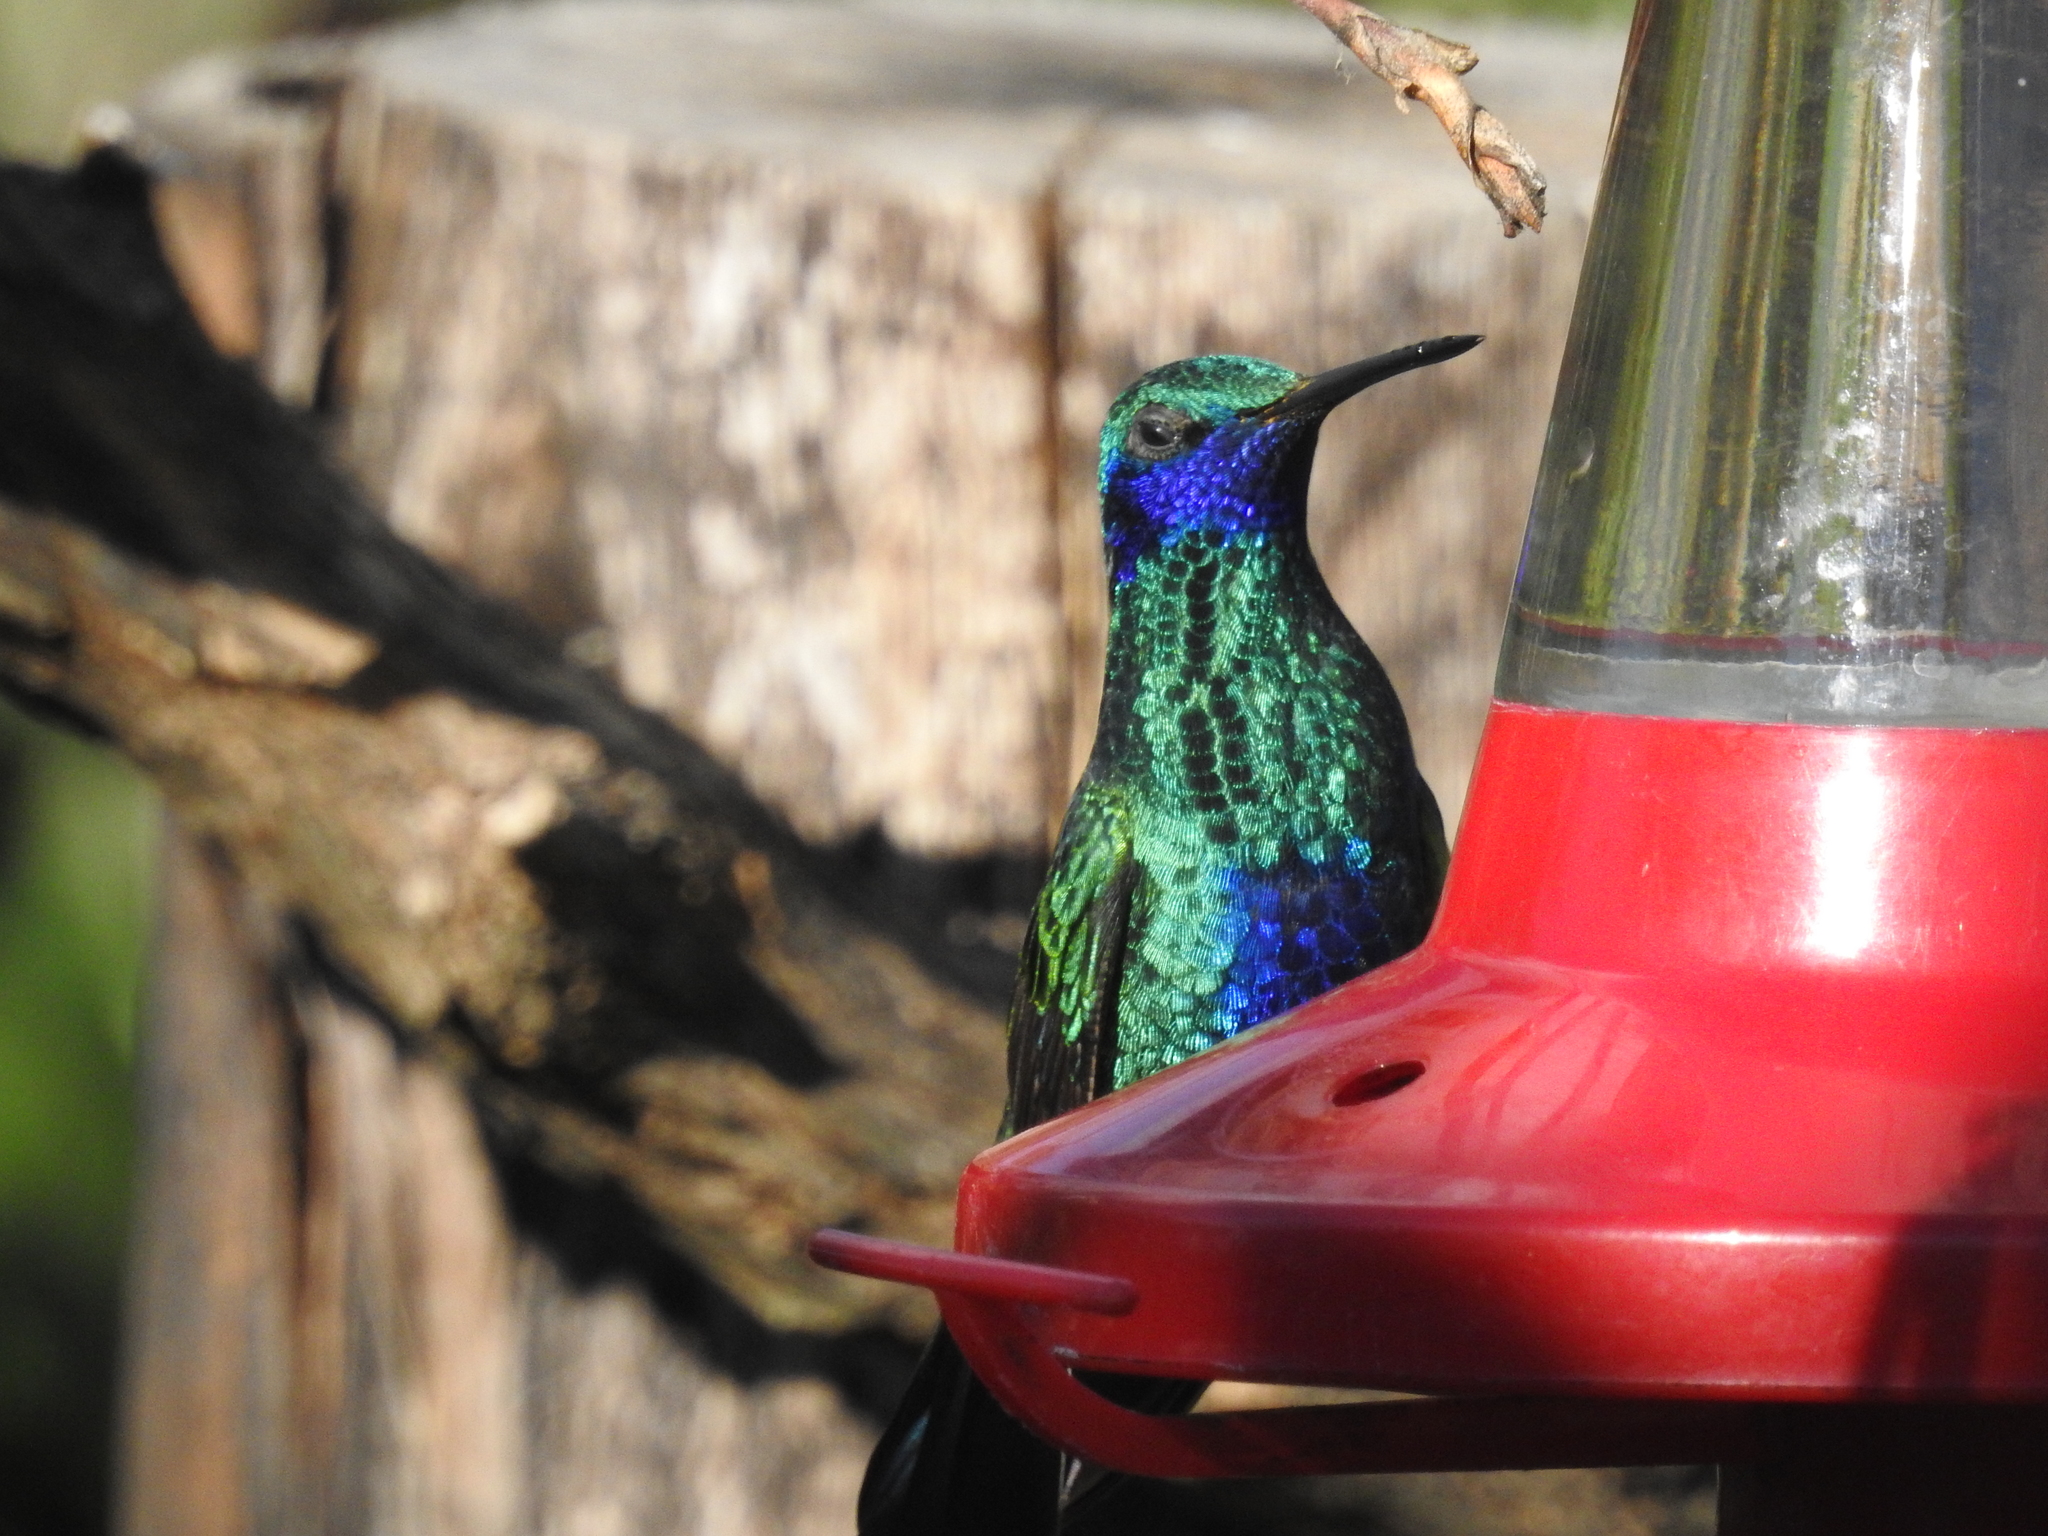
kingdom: Animalia
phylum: Chordata
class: Aves
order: Apodiformes
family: Trochilidae
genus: Colibri
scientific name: Colibri coruscans
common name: Sparkling violetear
